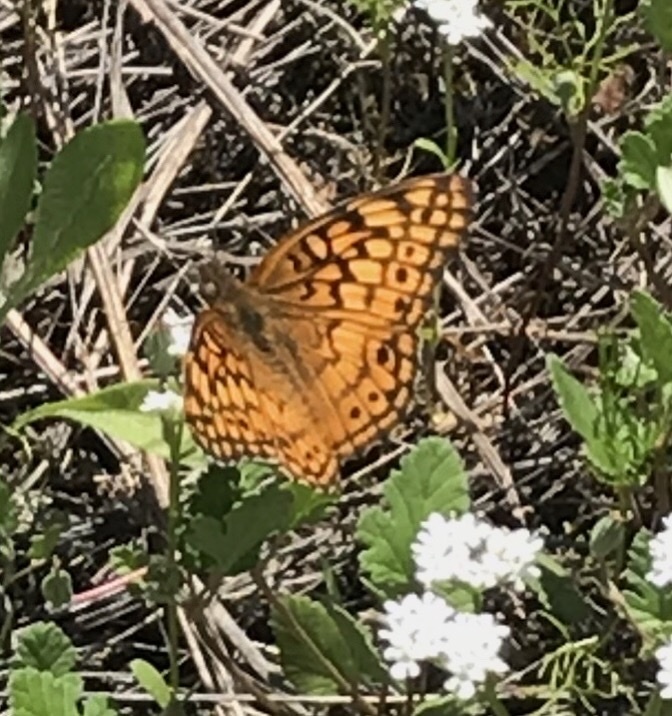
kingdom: Animalia
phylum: Arthropoda
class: Insecta
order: Lepidoptera
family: Nymphalidae
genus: Euptoieta
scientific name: Euptoieta claudia
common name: Variegated fritillary
